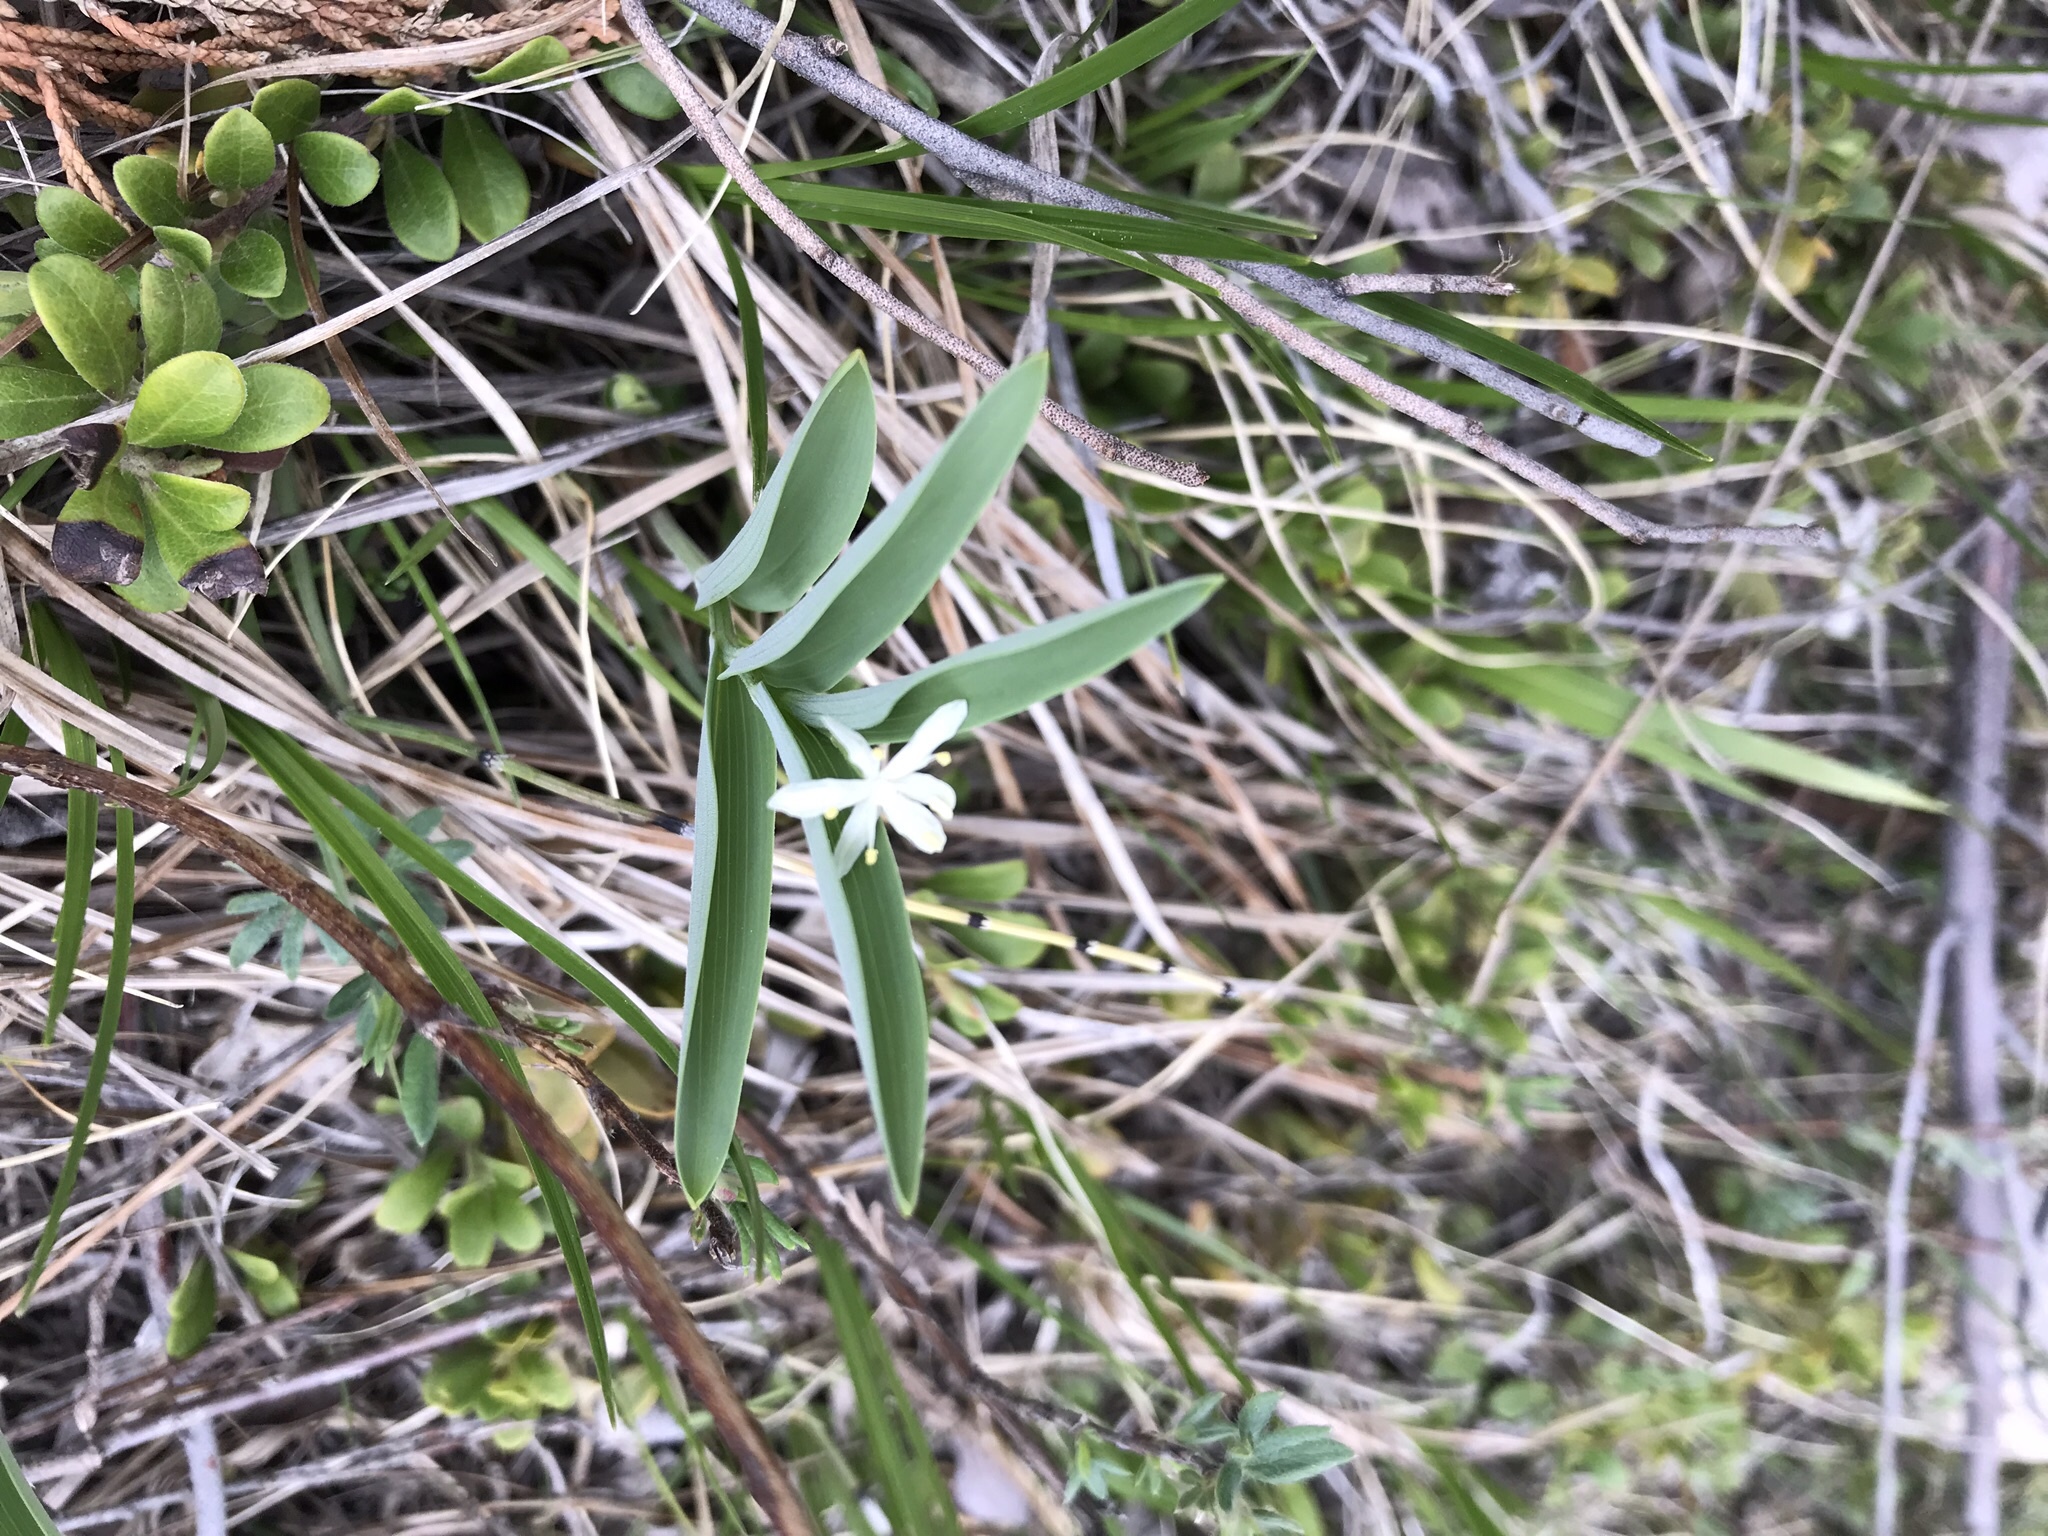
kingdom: Plantae
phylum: Tracheophyta
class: Liliopsida
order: Asparagales
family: Asparagaceae
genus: Maianthemum
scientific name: Maianthemum stellatum
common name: Little false solomon's seal
